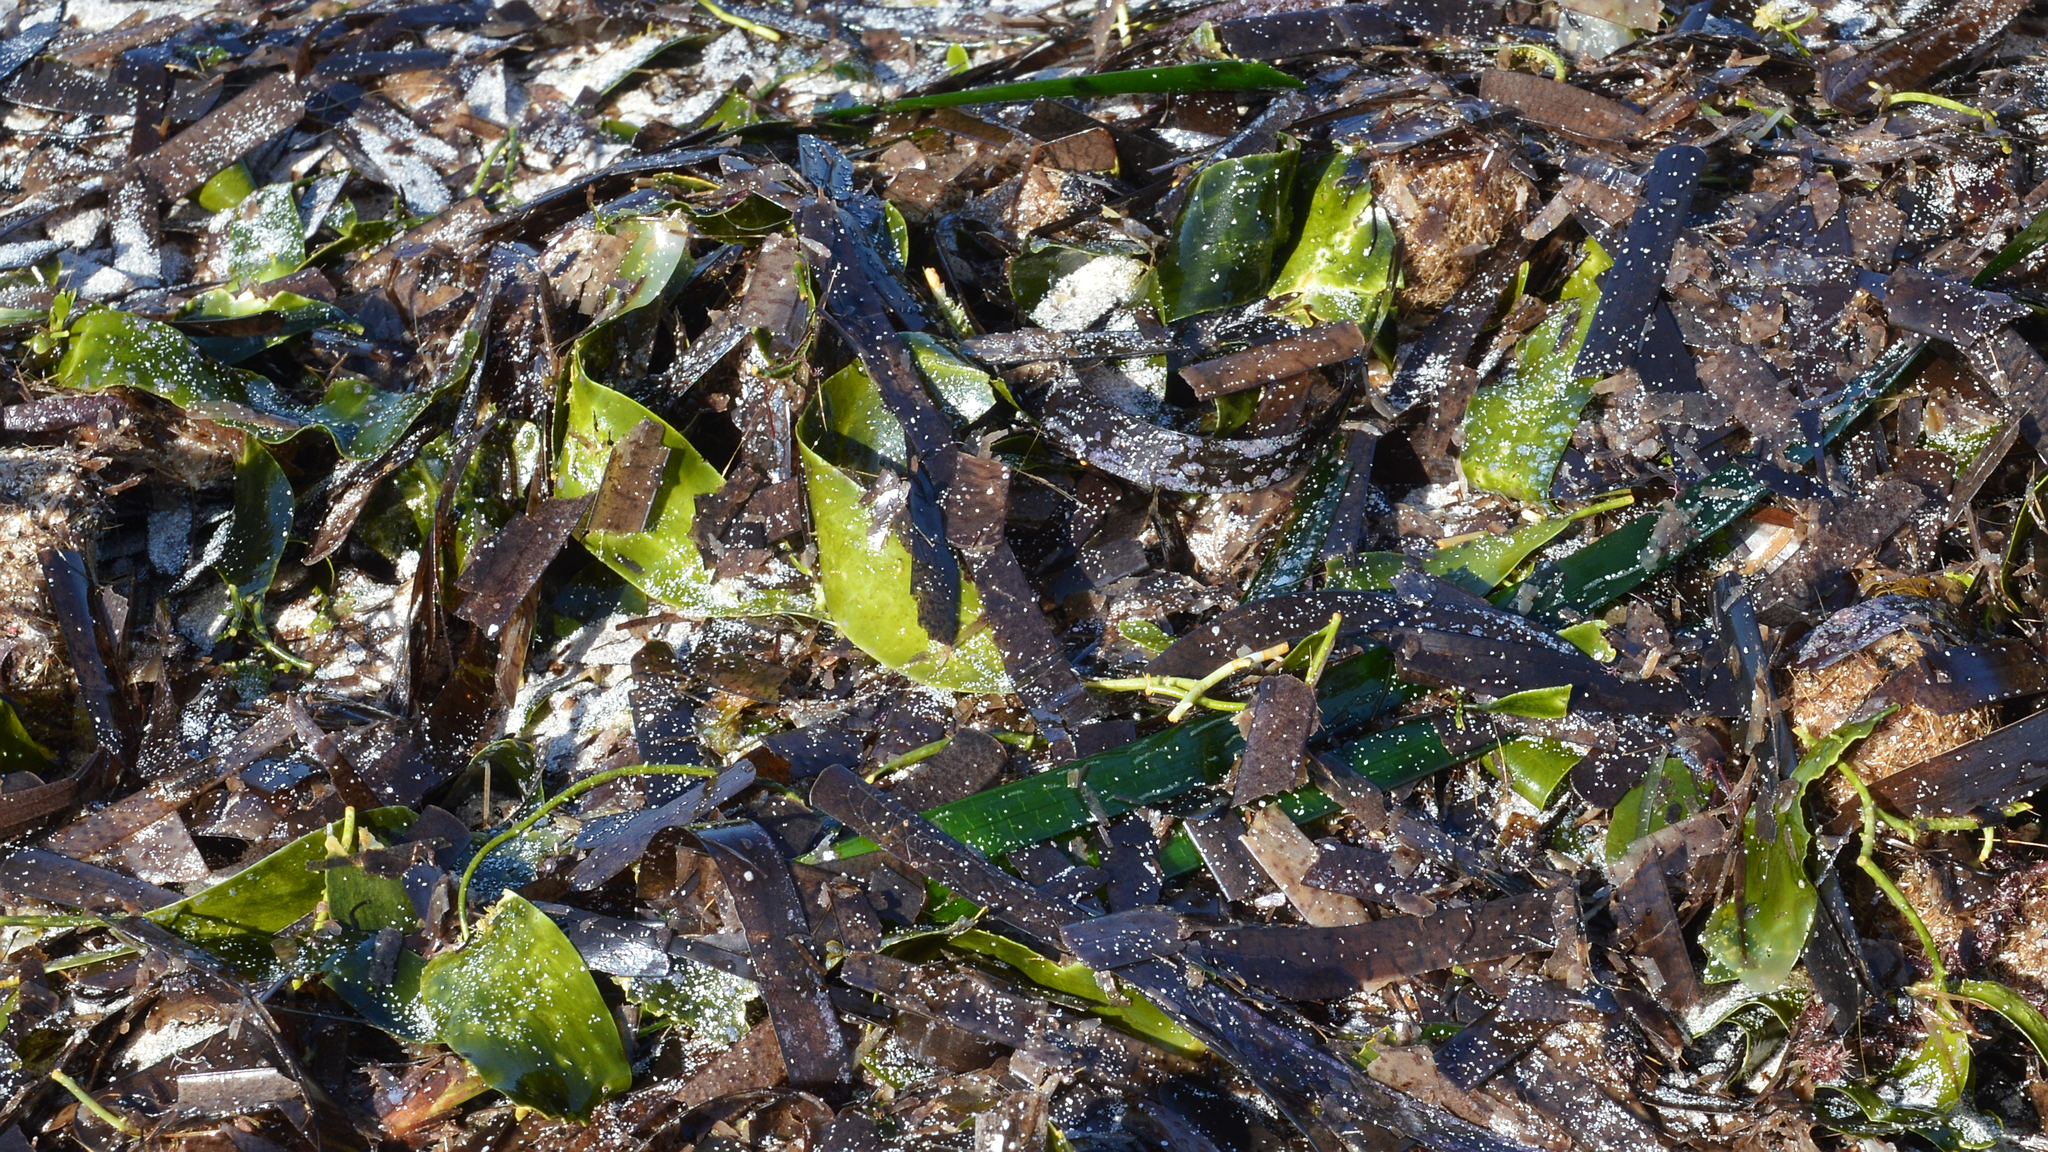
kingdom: Plantae
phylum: Tracheophyta
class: Liliopsida
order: Alismatales
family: Posidoniaceae
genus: Posidonia
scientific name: Posidonia oceanica
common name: Mediterranean tapeweed
